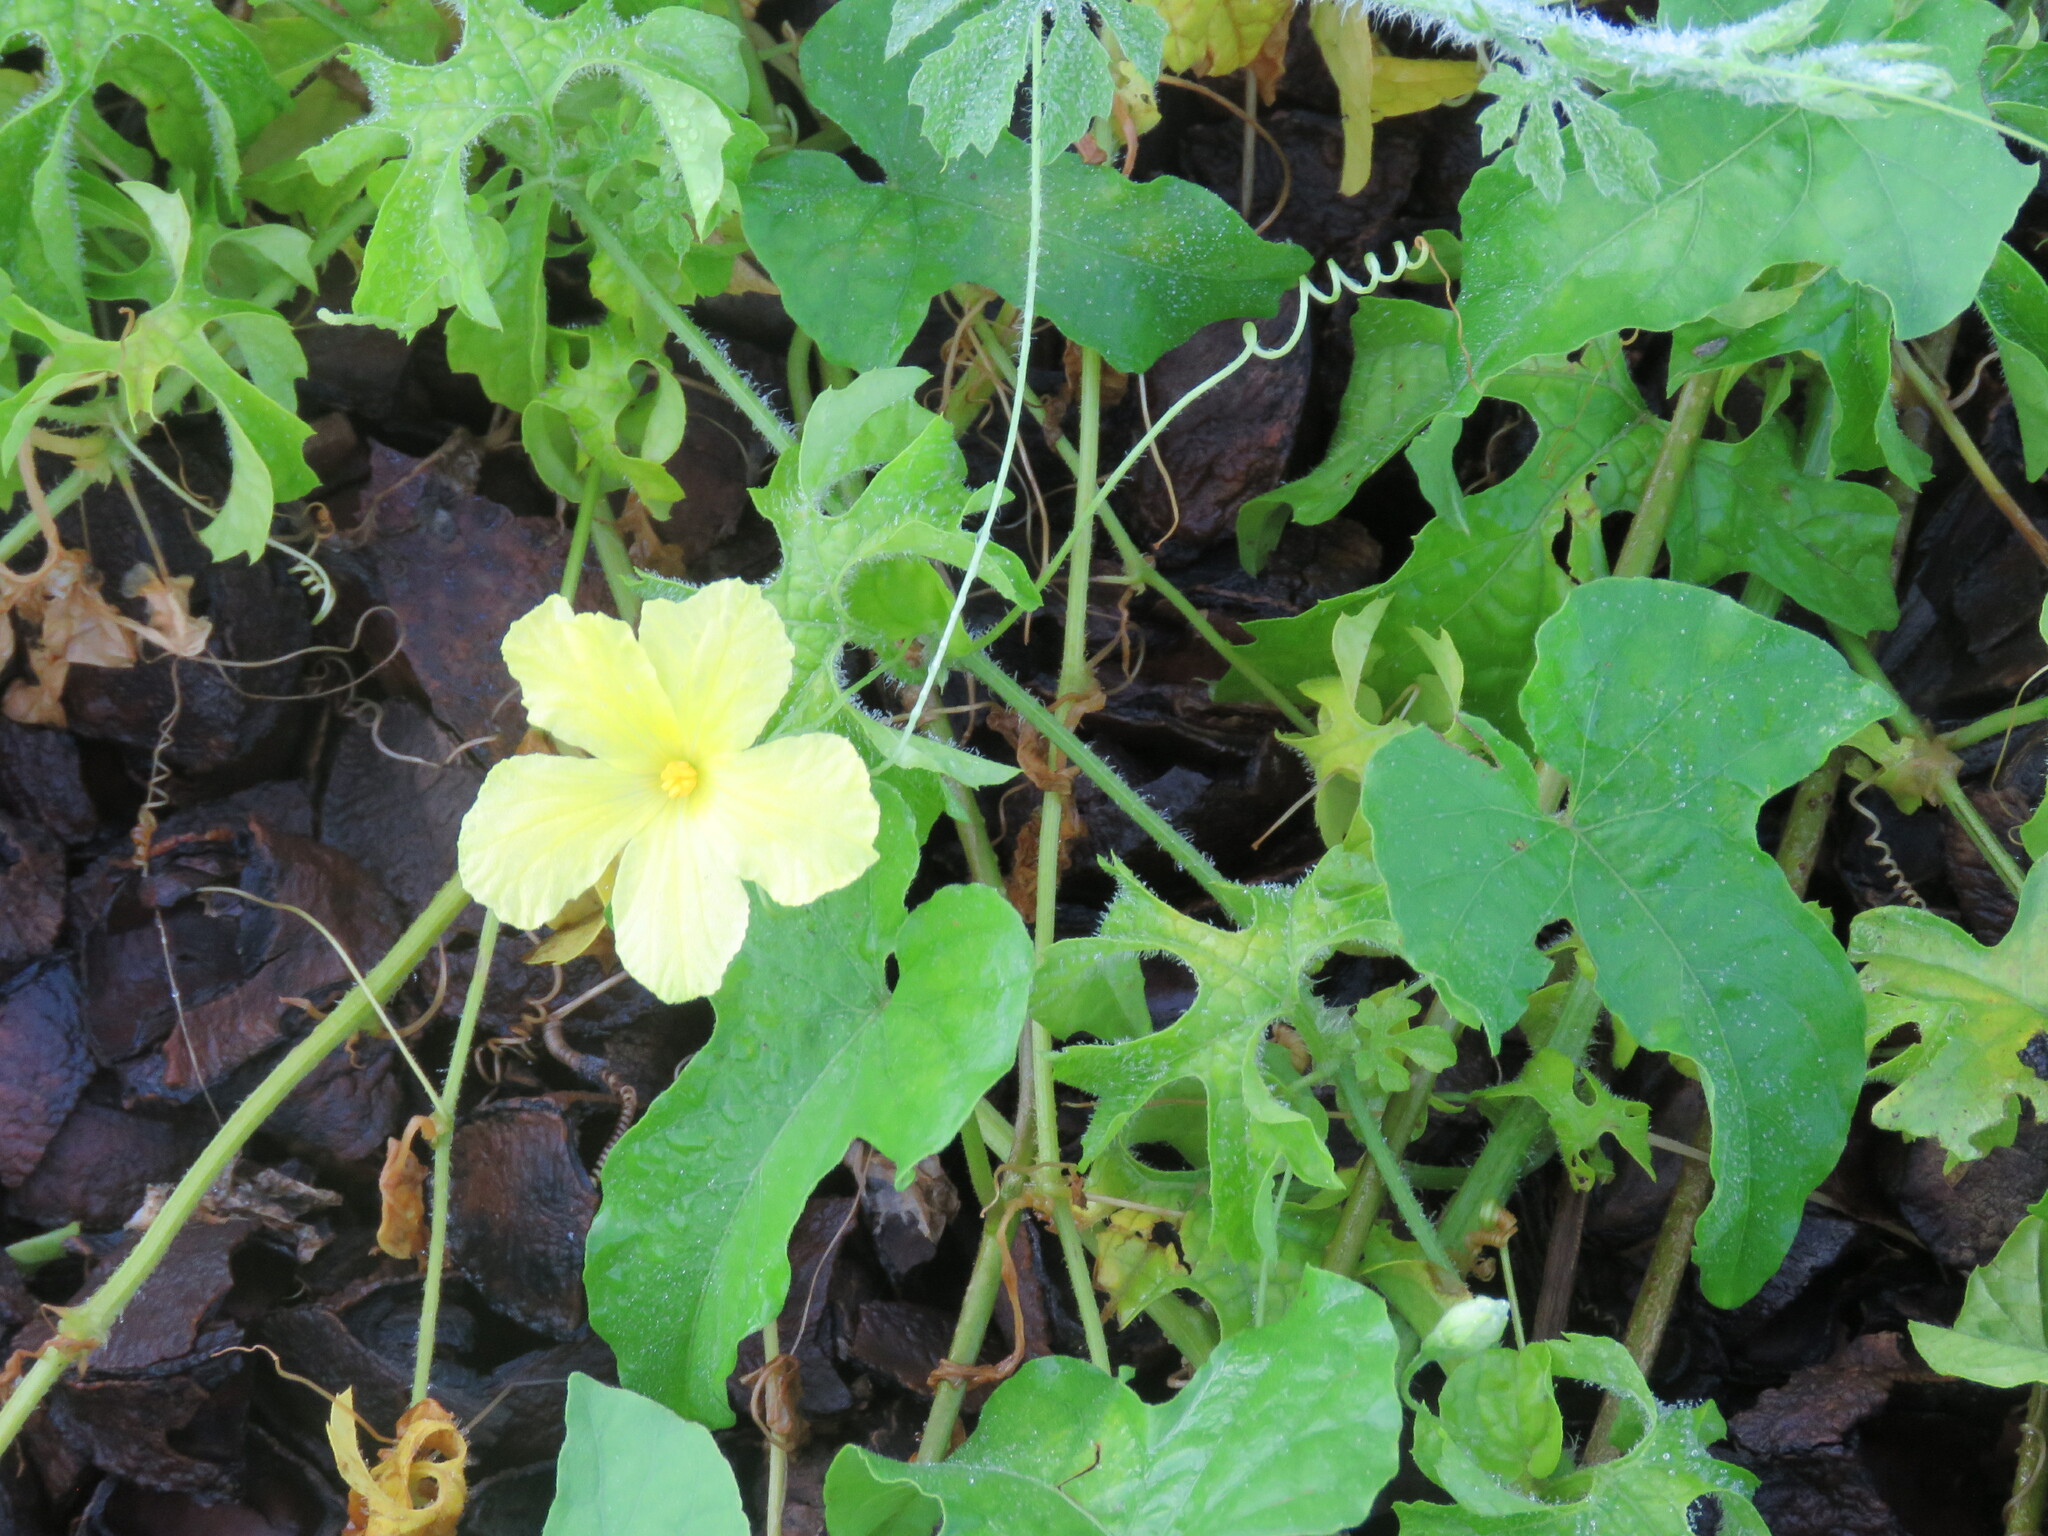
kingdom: Plantae
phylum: Tracheophyta
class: Magnoliopsida
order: Cucurbitales
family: Cucurbitaceae
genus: Momordica
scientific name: Momordica charantia
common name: Balsampear
